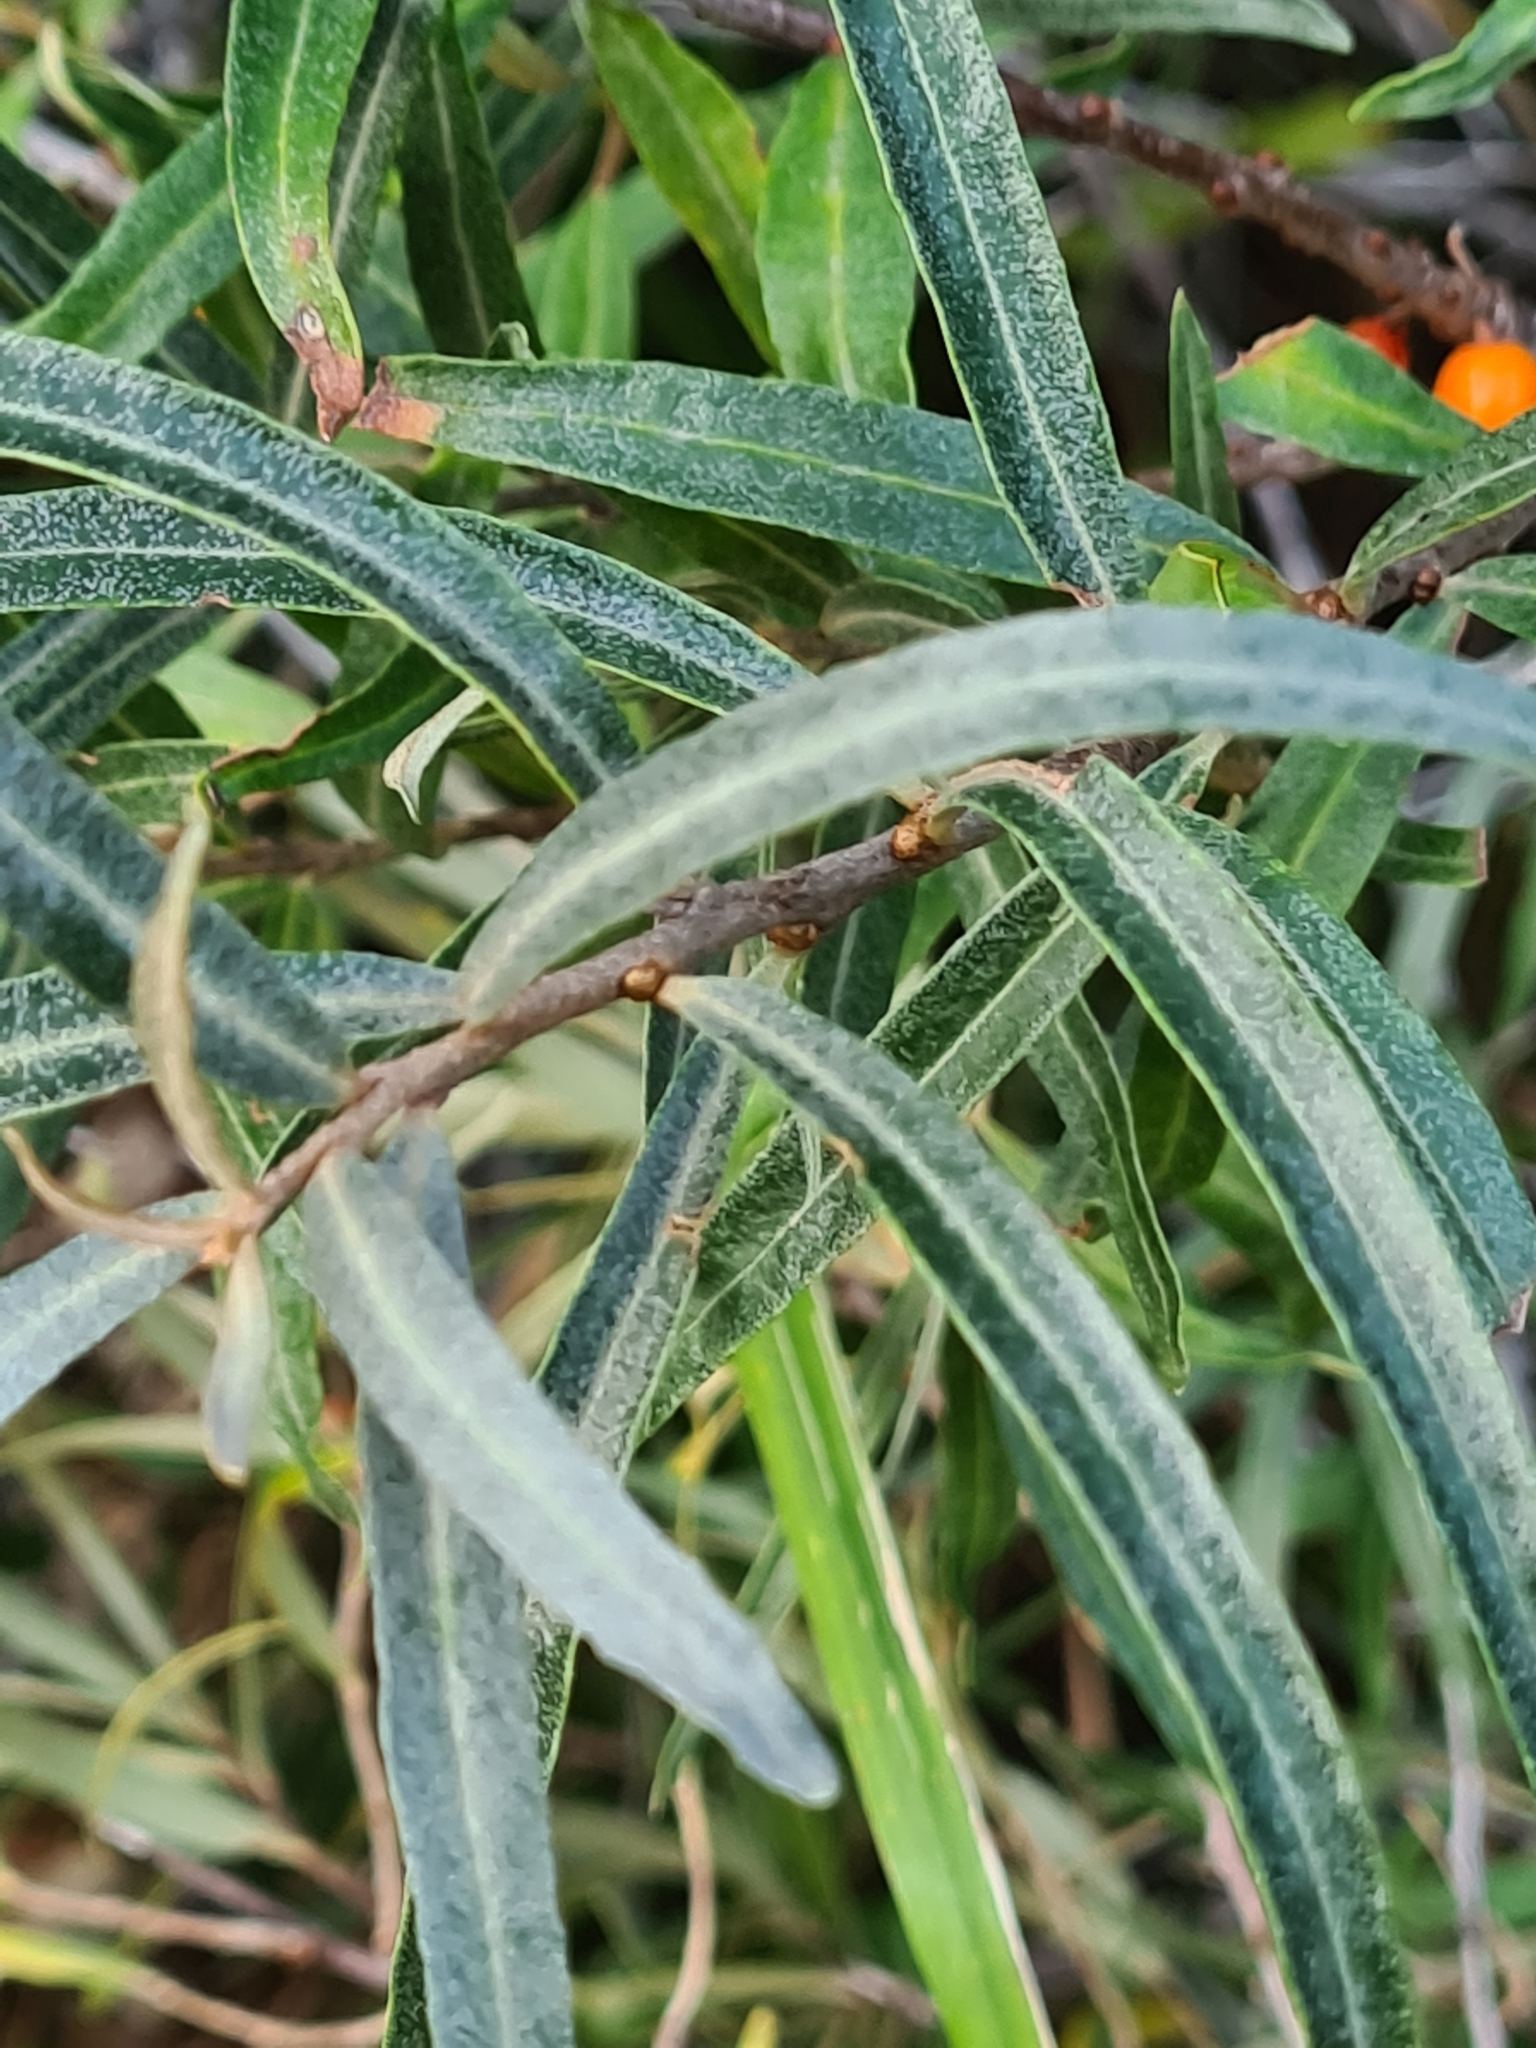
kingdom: Plantae
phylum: Tracheophyta
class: Magnoliopsida
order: Rosales
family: Elaeagnaceae
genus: Hippophae
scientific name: Hippophae rhamnoides
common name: Sea-buckthorn
